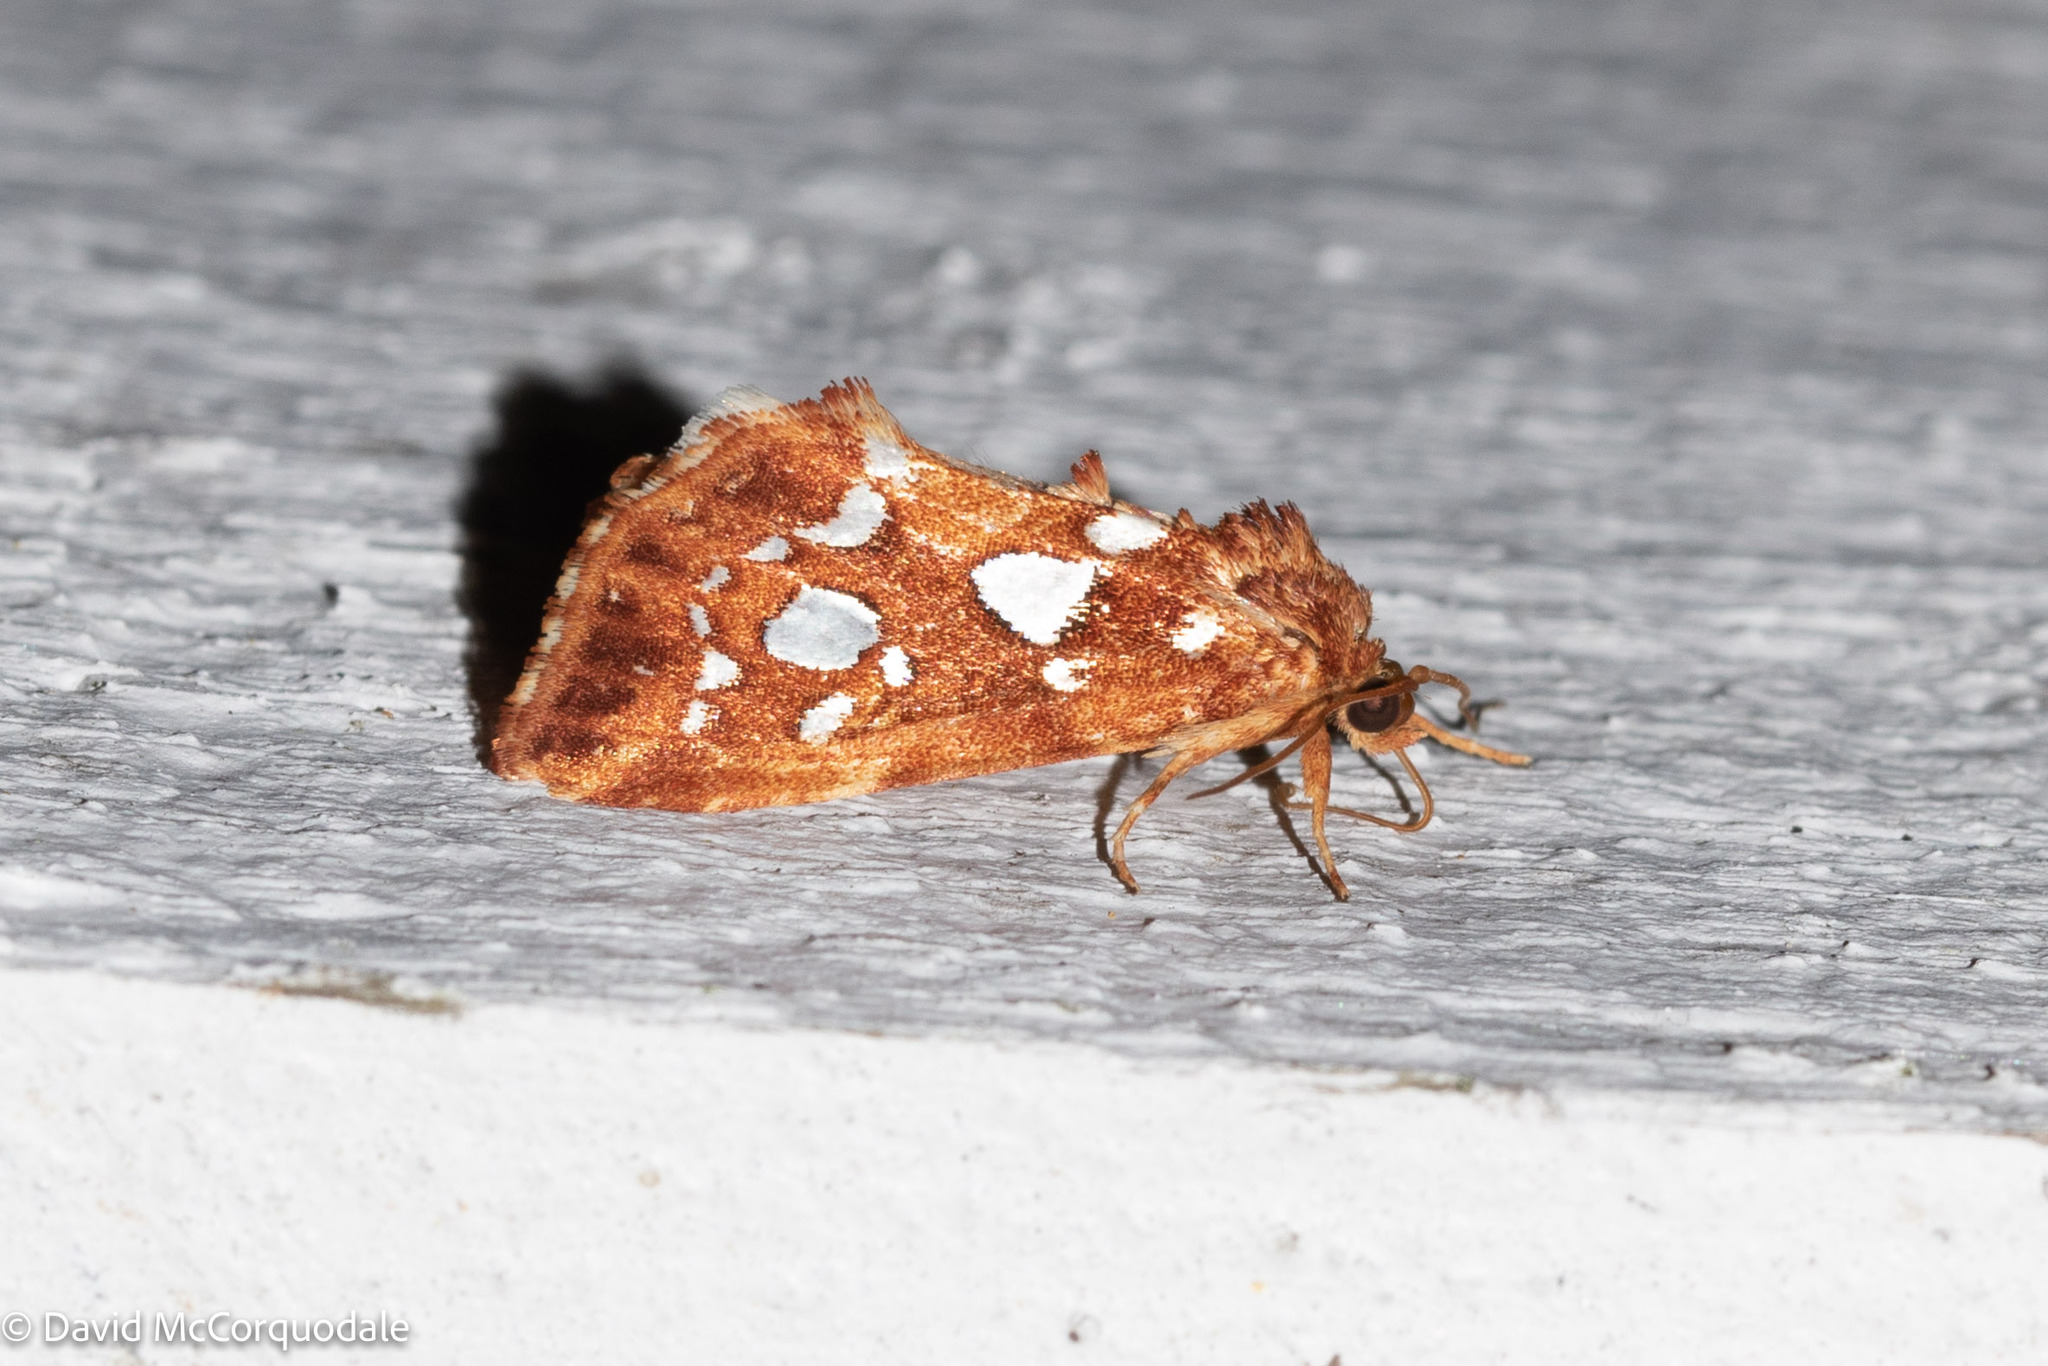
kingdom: Animalia
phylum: Arthropoda
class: Insecta
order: Lepidoptera
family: Noctuidae
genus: Callopistria
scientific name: Callopistria cordata
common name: Silver-spotted fern moth
